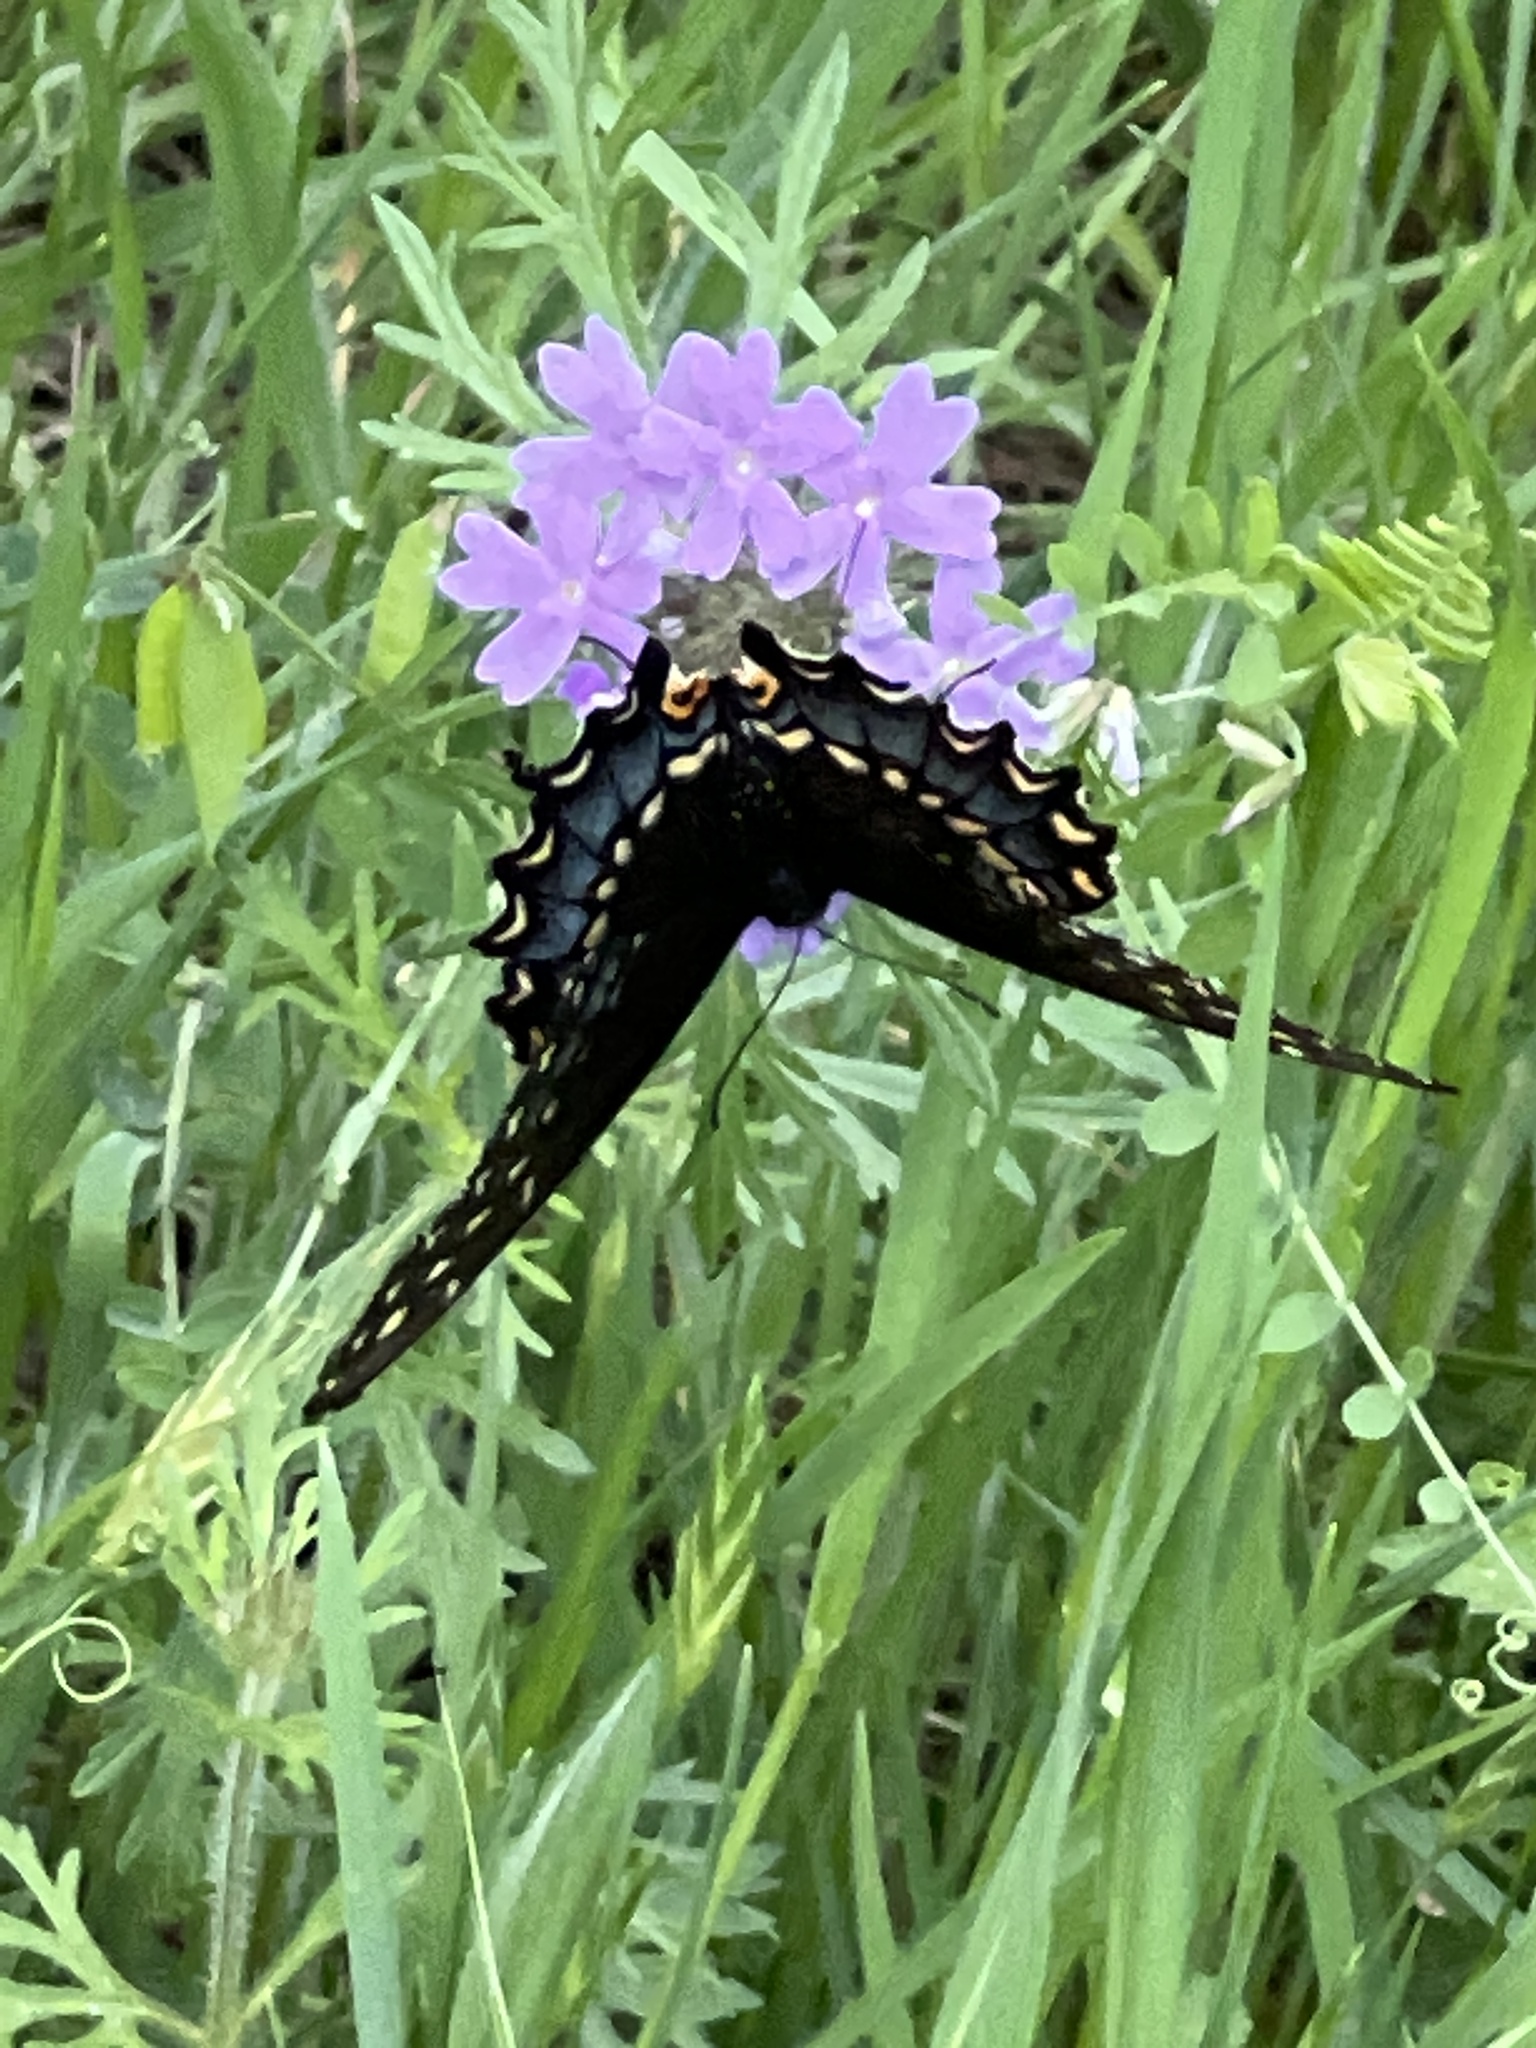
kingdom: Animalia
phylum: Arthropoda
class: Insecta
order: Lepidoptera
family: Papilionidae
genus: Papilio
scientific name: Papilio polyxenes
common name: Black swallowtail
